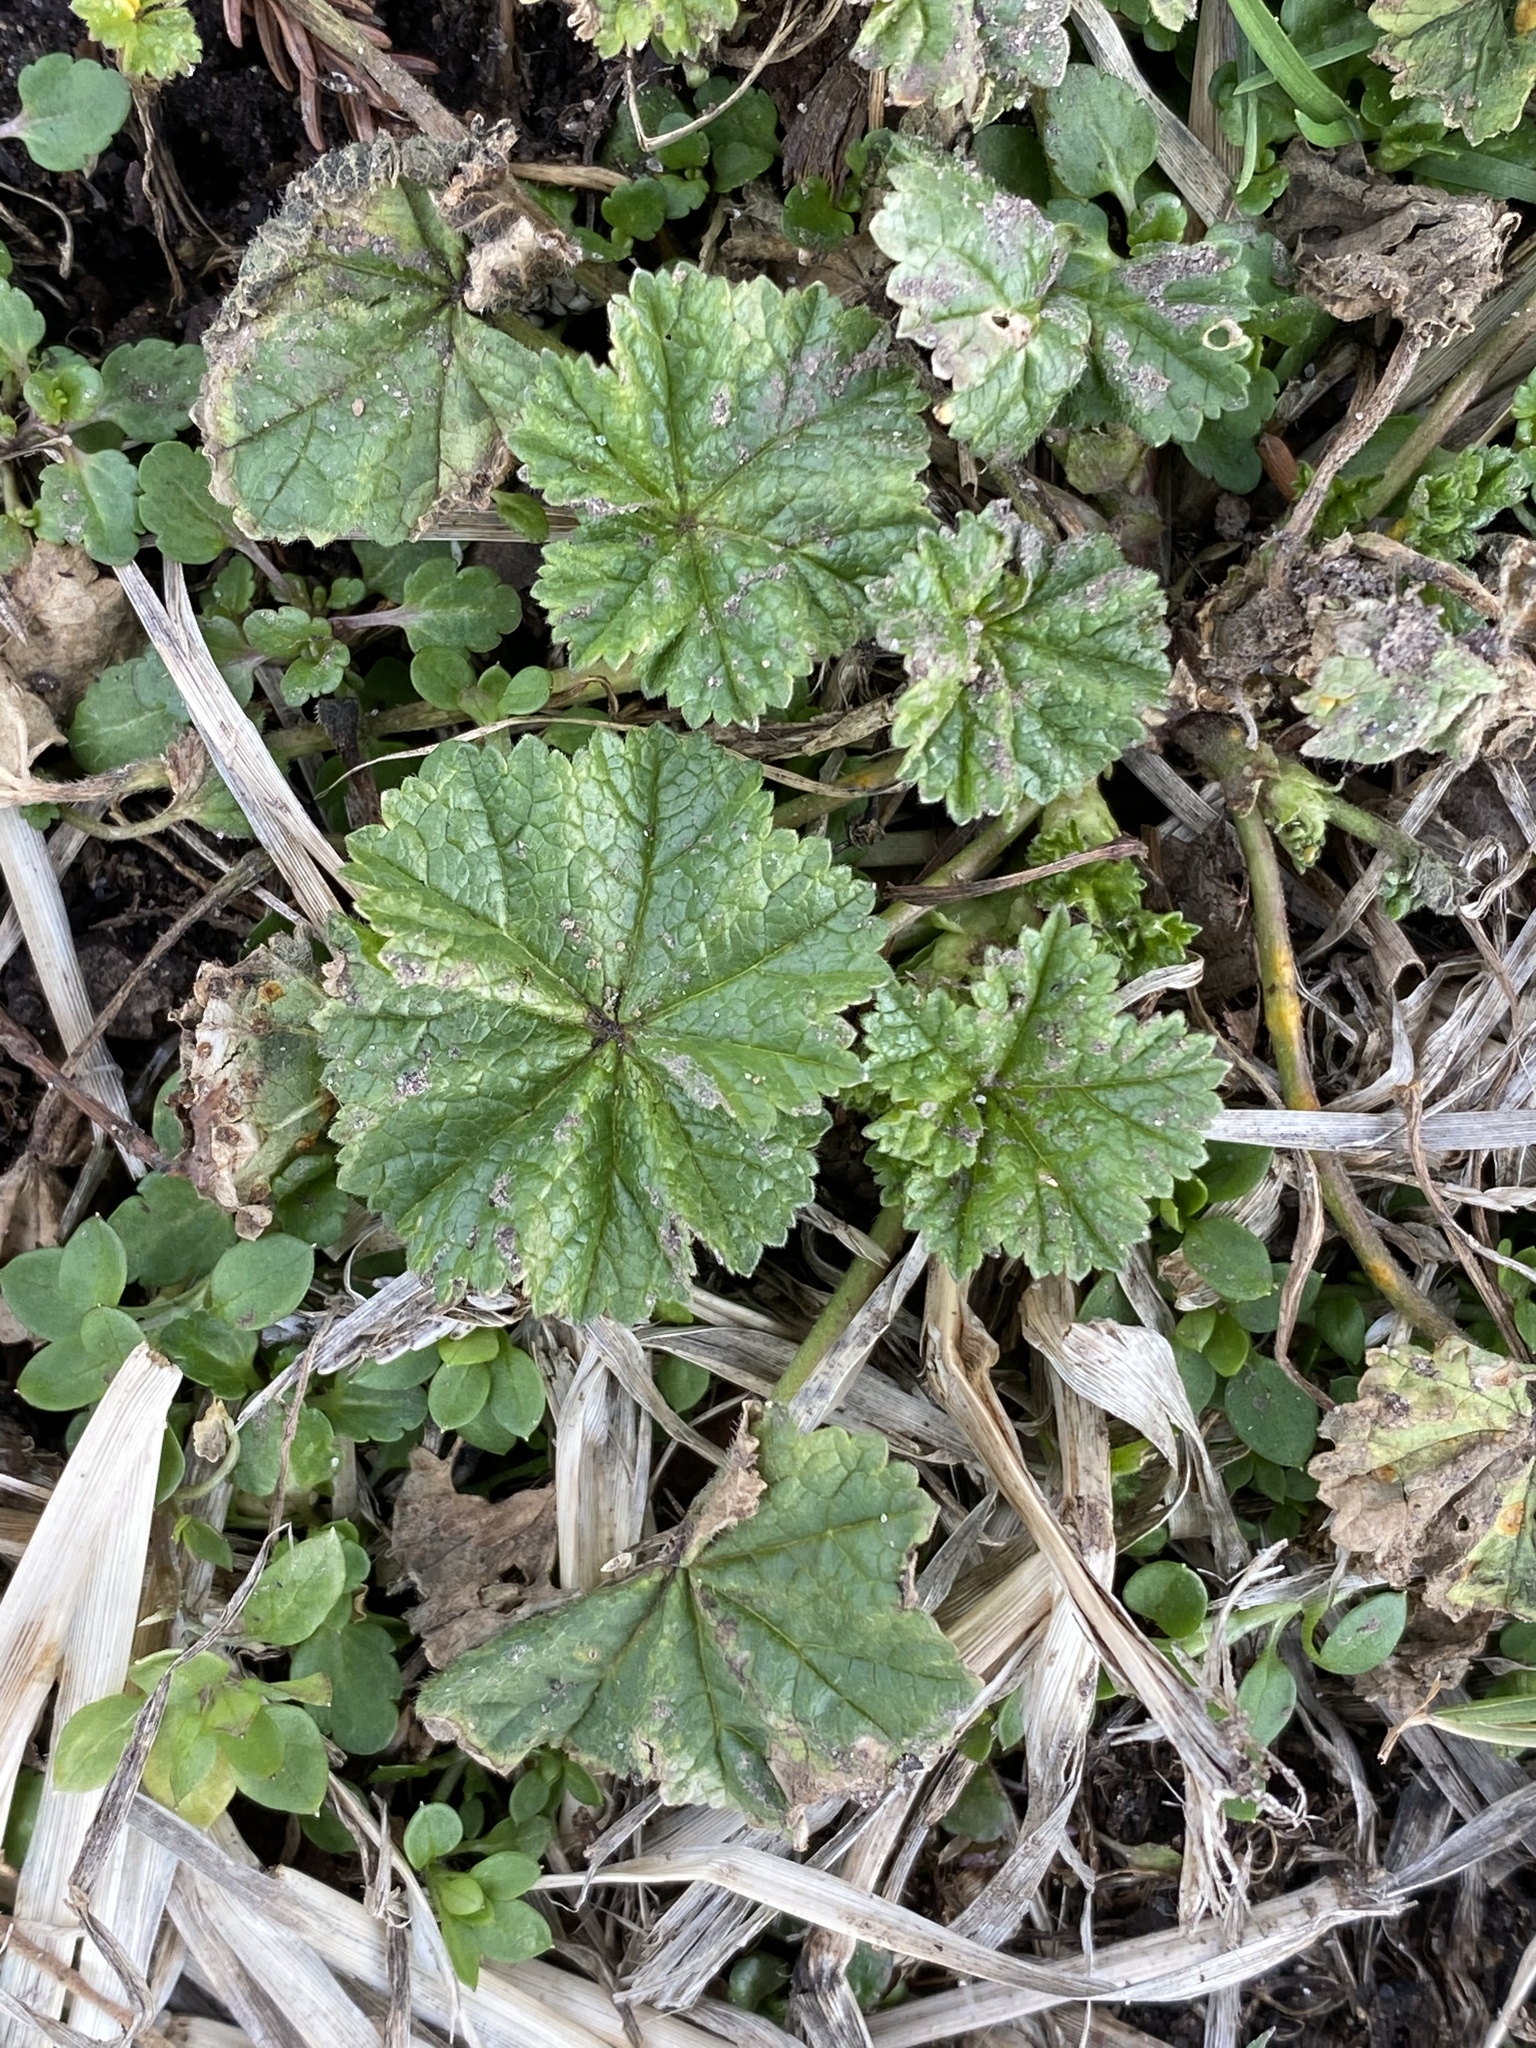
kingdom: Plantae
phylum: Tracheophyta
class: Magnoliopsida
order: Malvales
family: Malvaceae
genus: Malva
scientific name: Malva neglecta
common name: Common mallow
